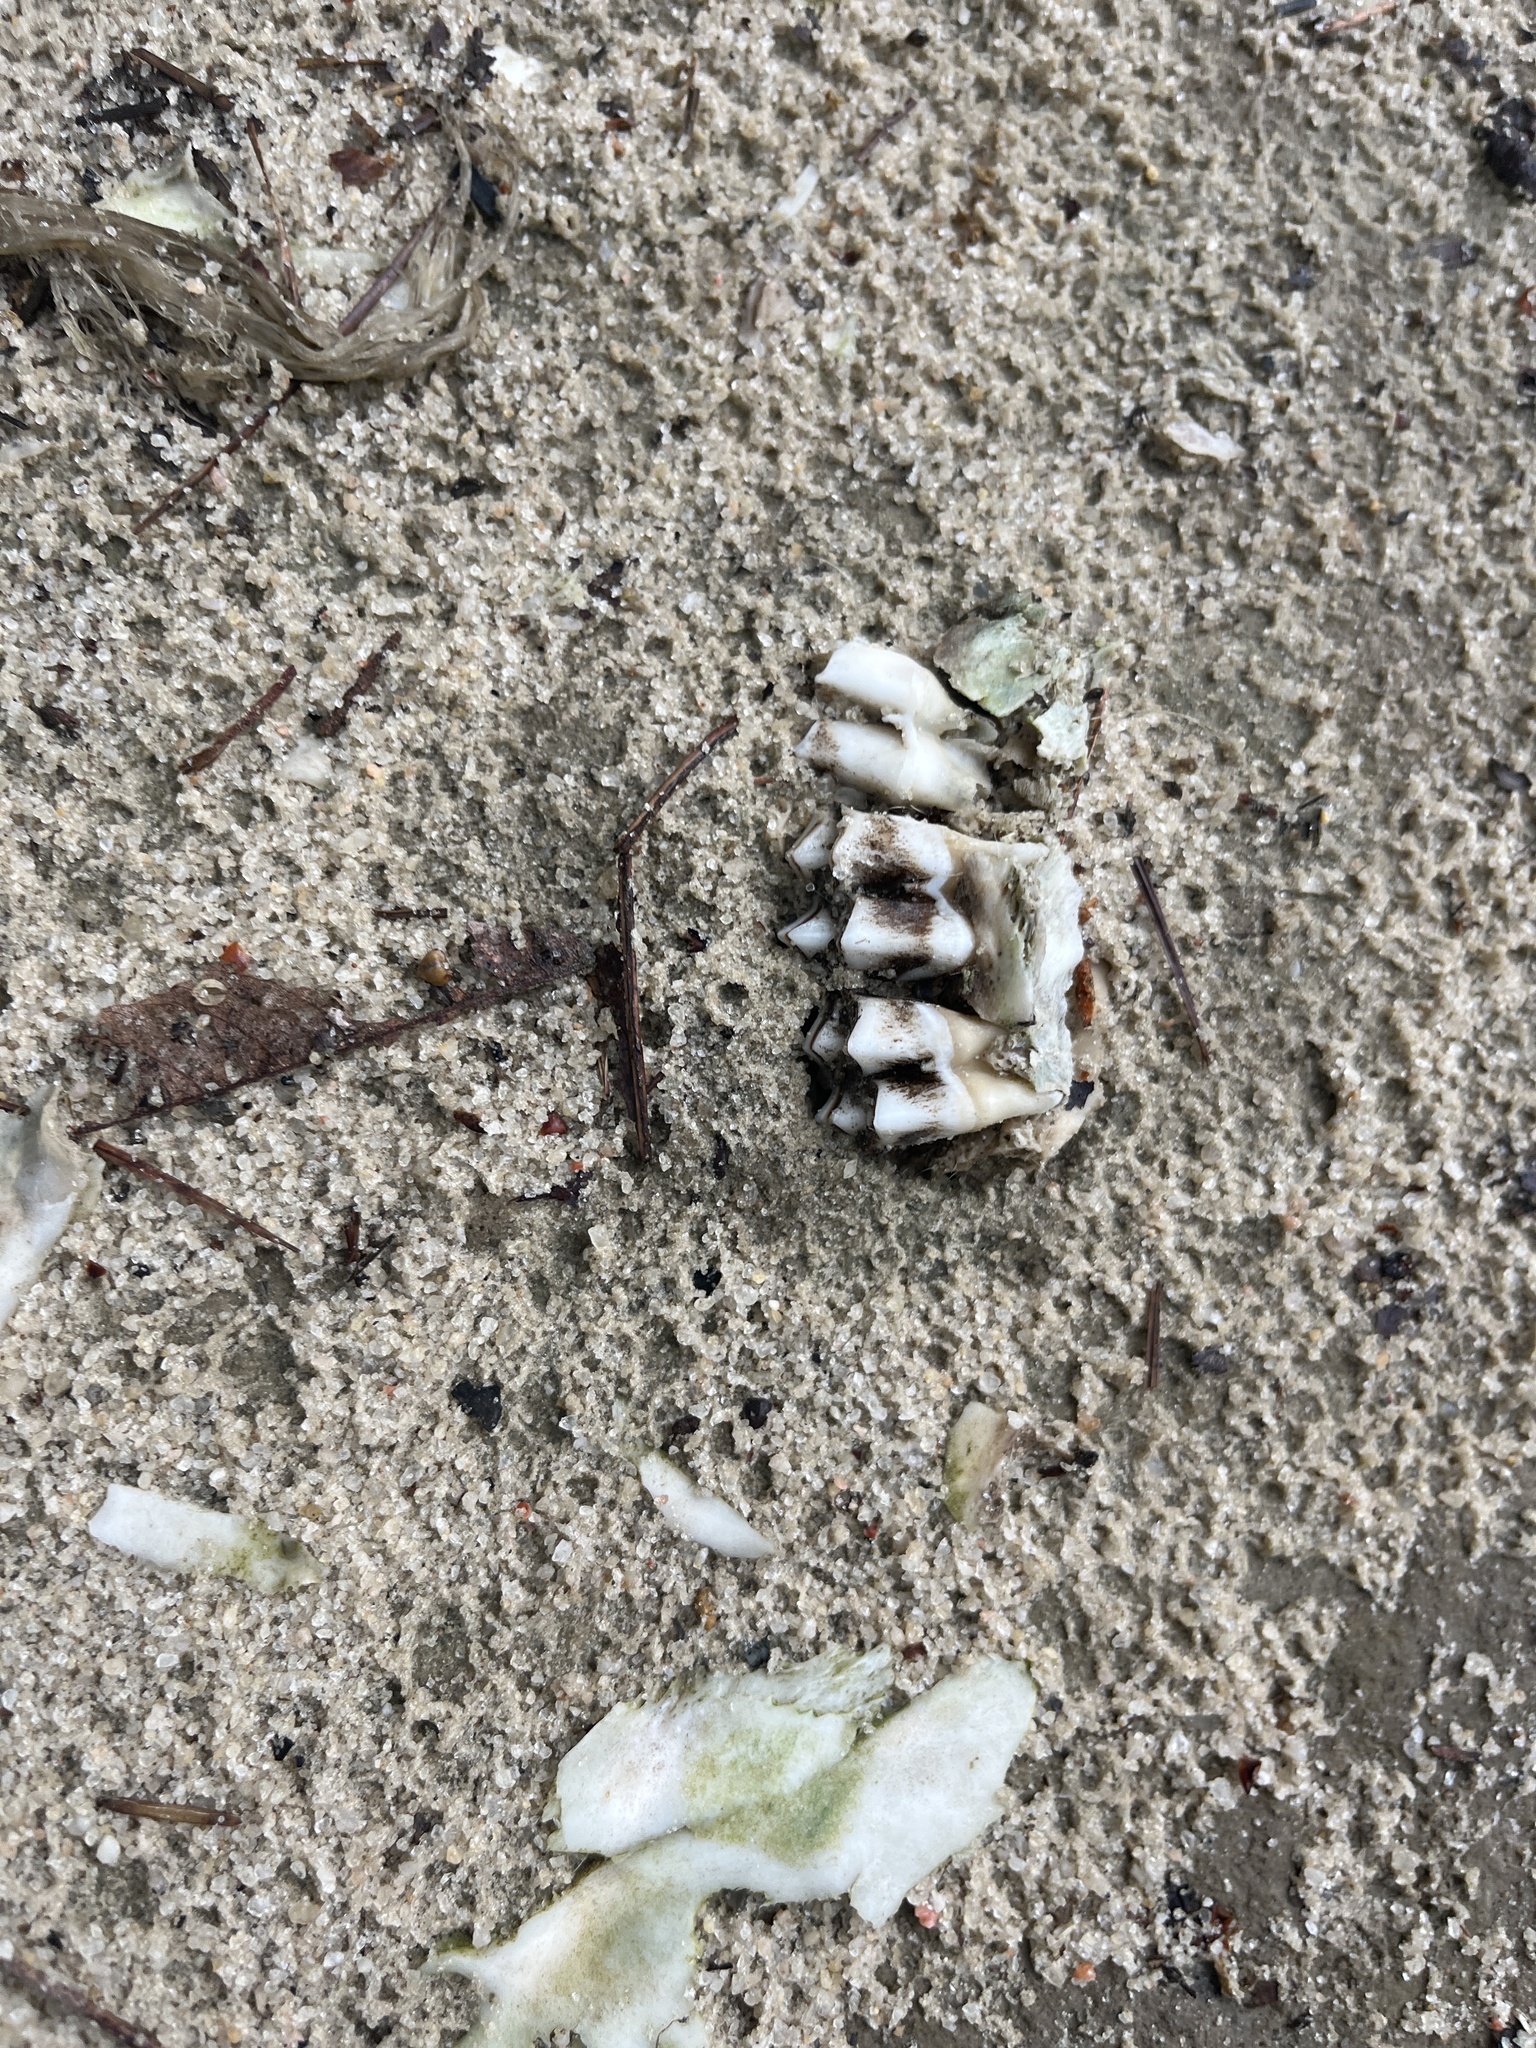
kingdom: Animalia
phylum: Chordata
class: Mammalia
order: Artiodactyla
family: Cervidae
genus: Odocoileus
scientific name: Odocoileus virginianus
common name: White-tailed deer
